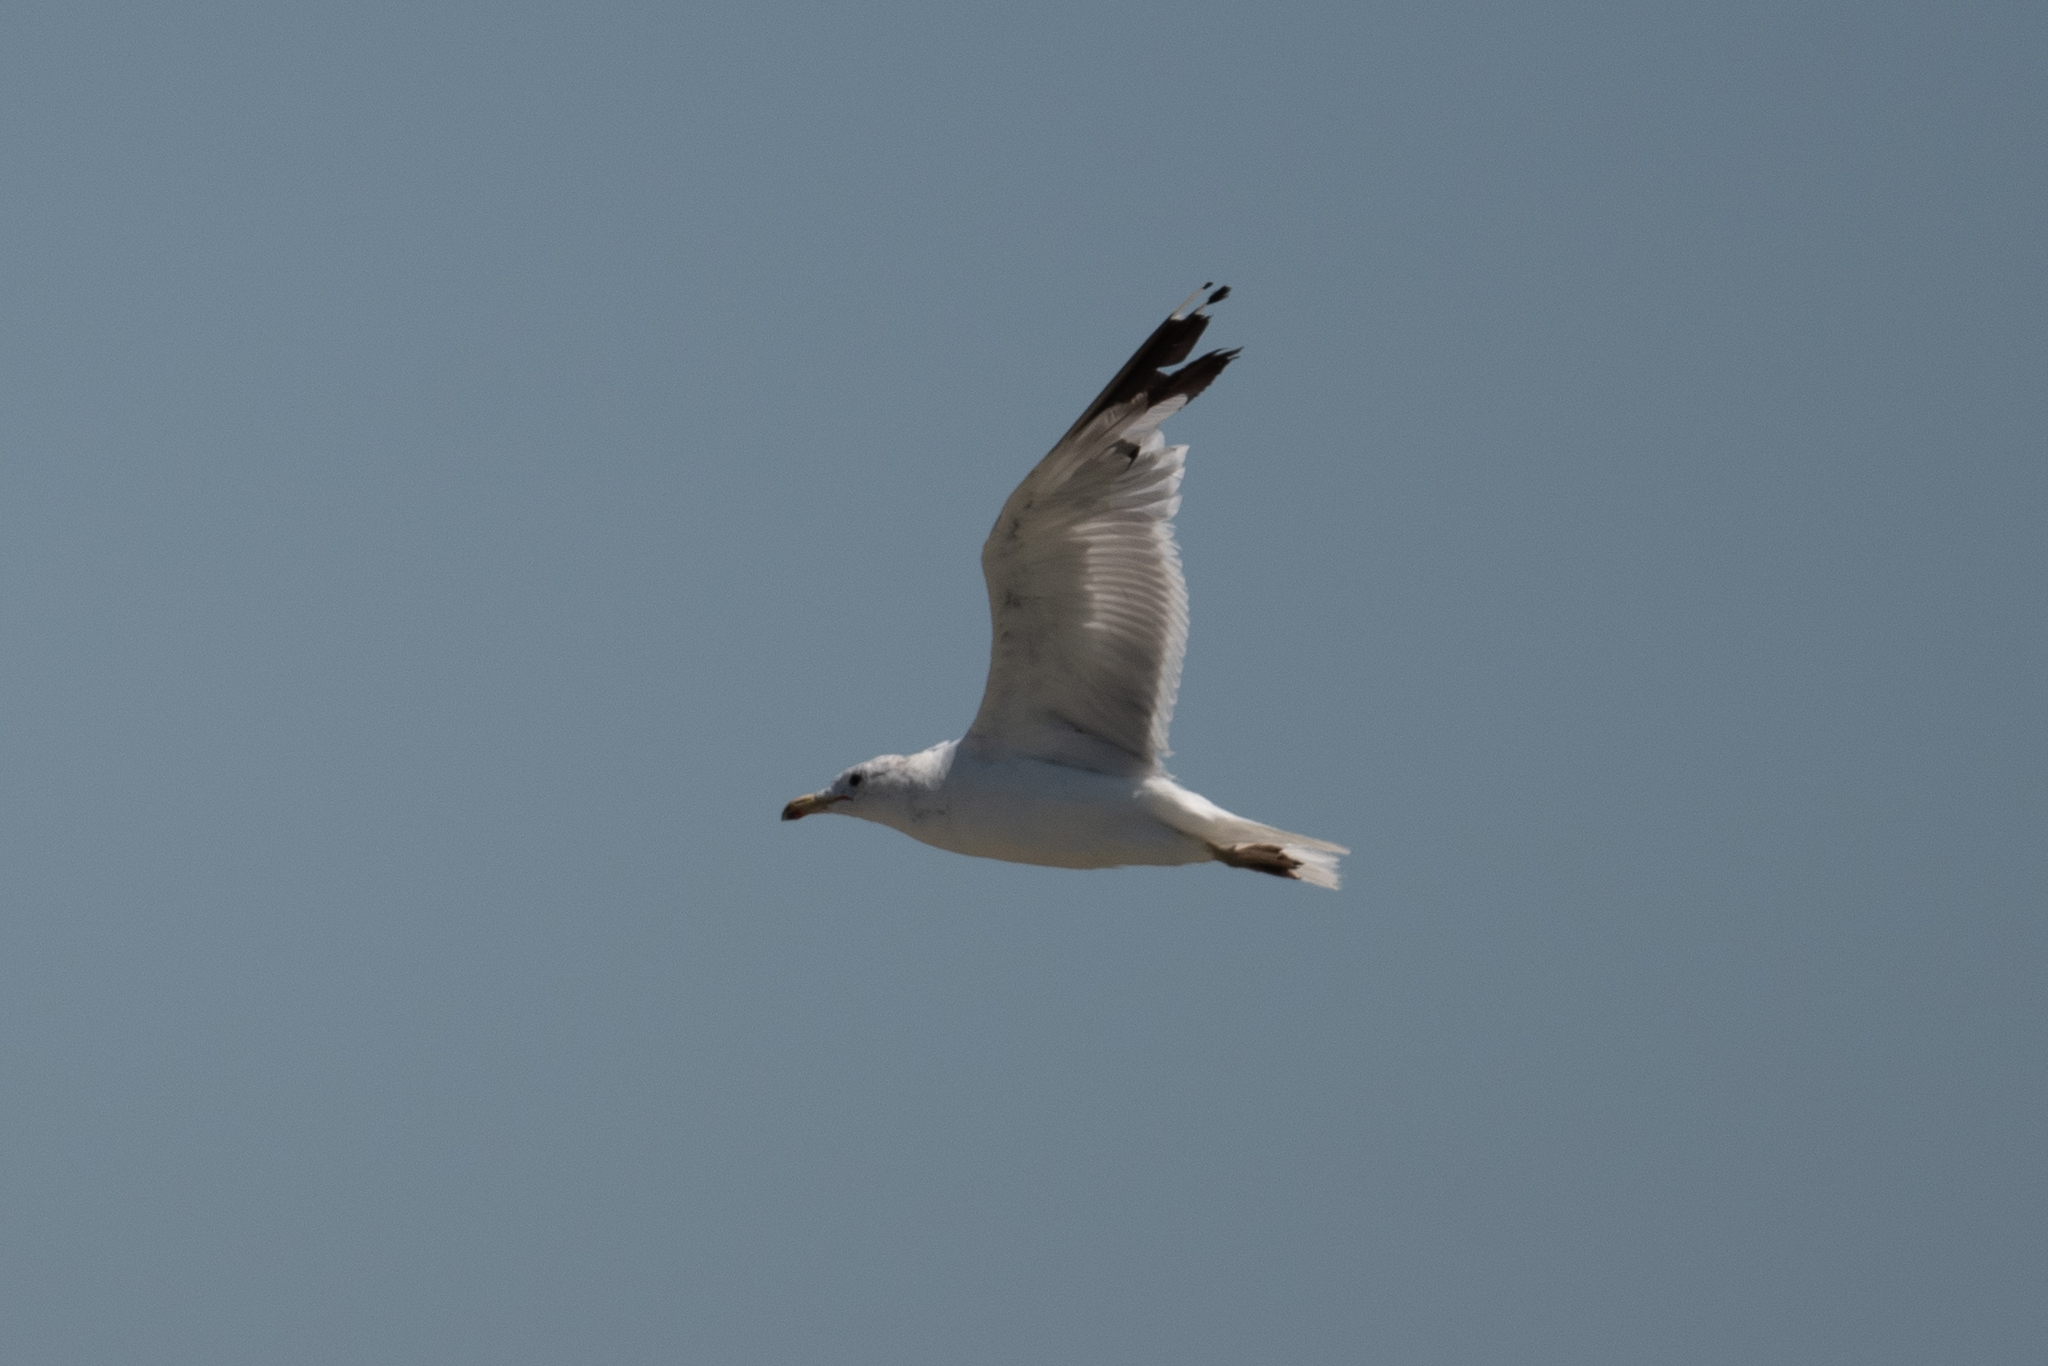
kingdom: Animalia
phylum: Chordata
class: Aves
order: Charadriiformes
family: Laridae
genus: Larus
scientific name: Larus californicus
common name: California gull
